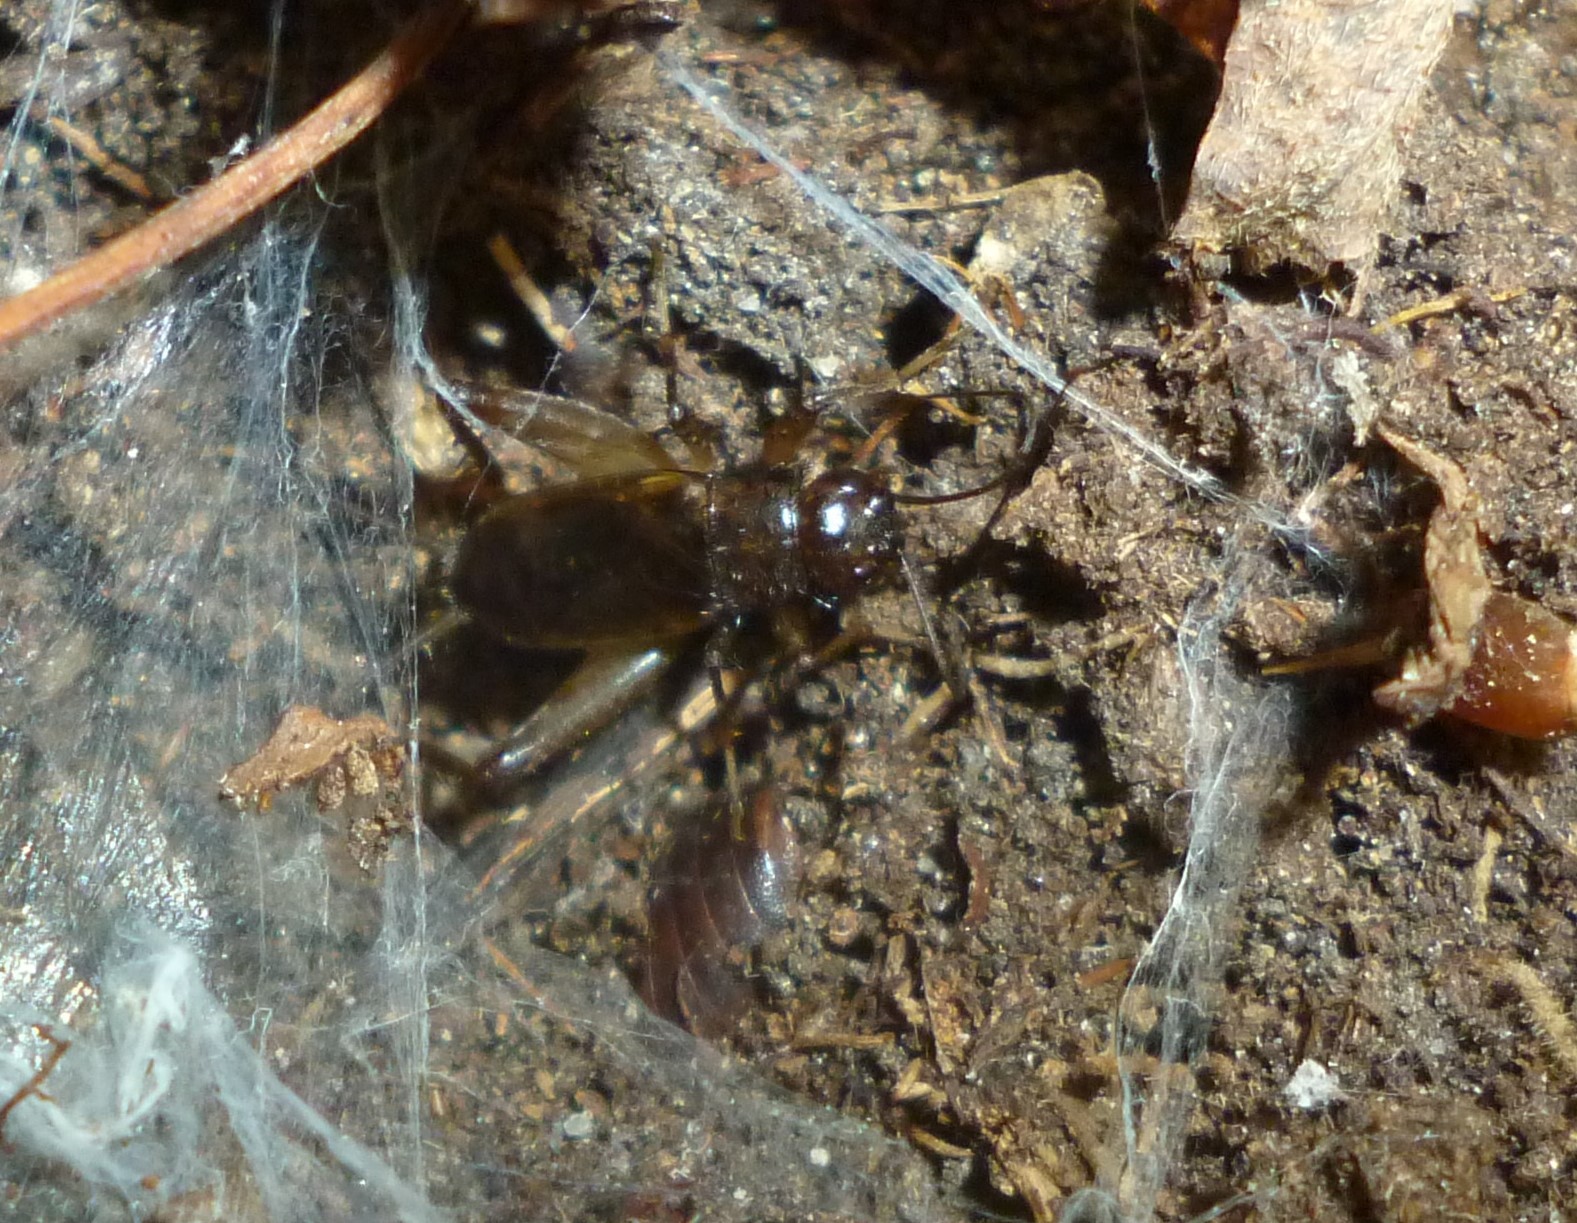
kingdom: Animalia
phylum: Arthropoda
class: Insecta
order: Orthoptera
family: Trigonidiidae
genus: Eunemobius
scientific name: Eunemobius carolinus
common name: Carolina ground cricket
